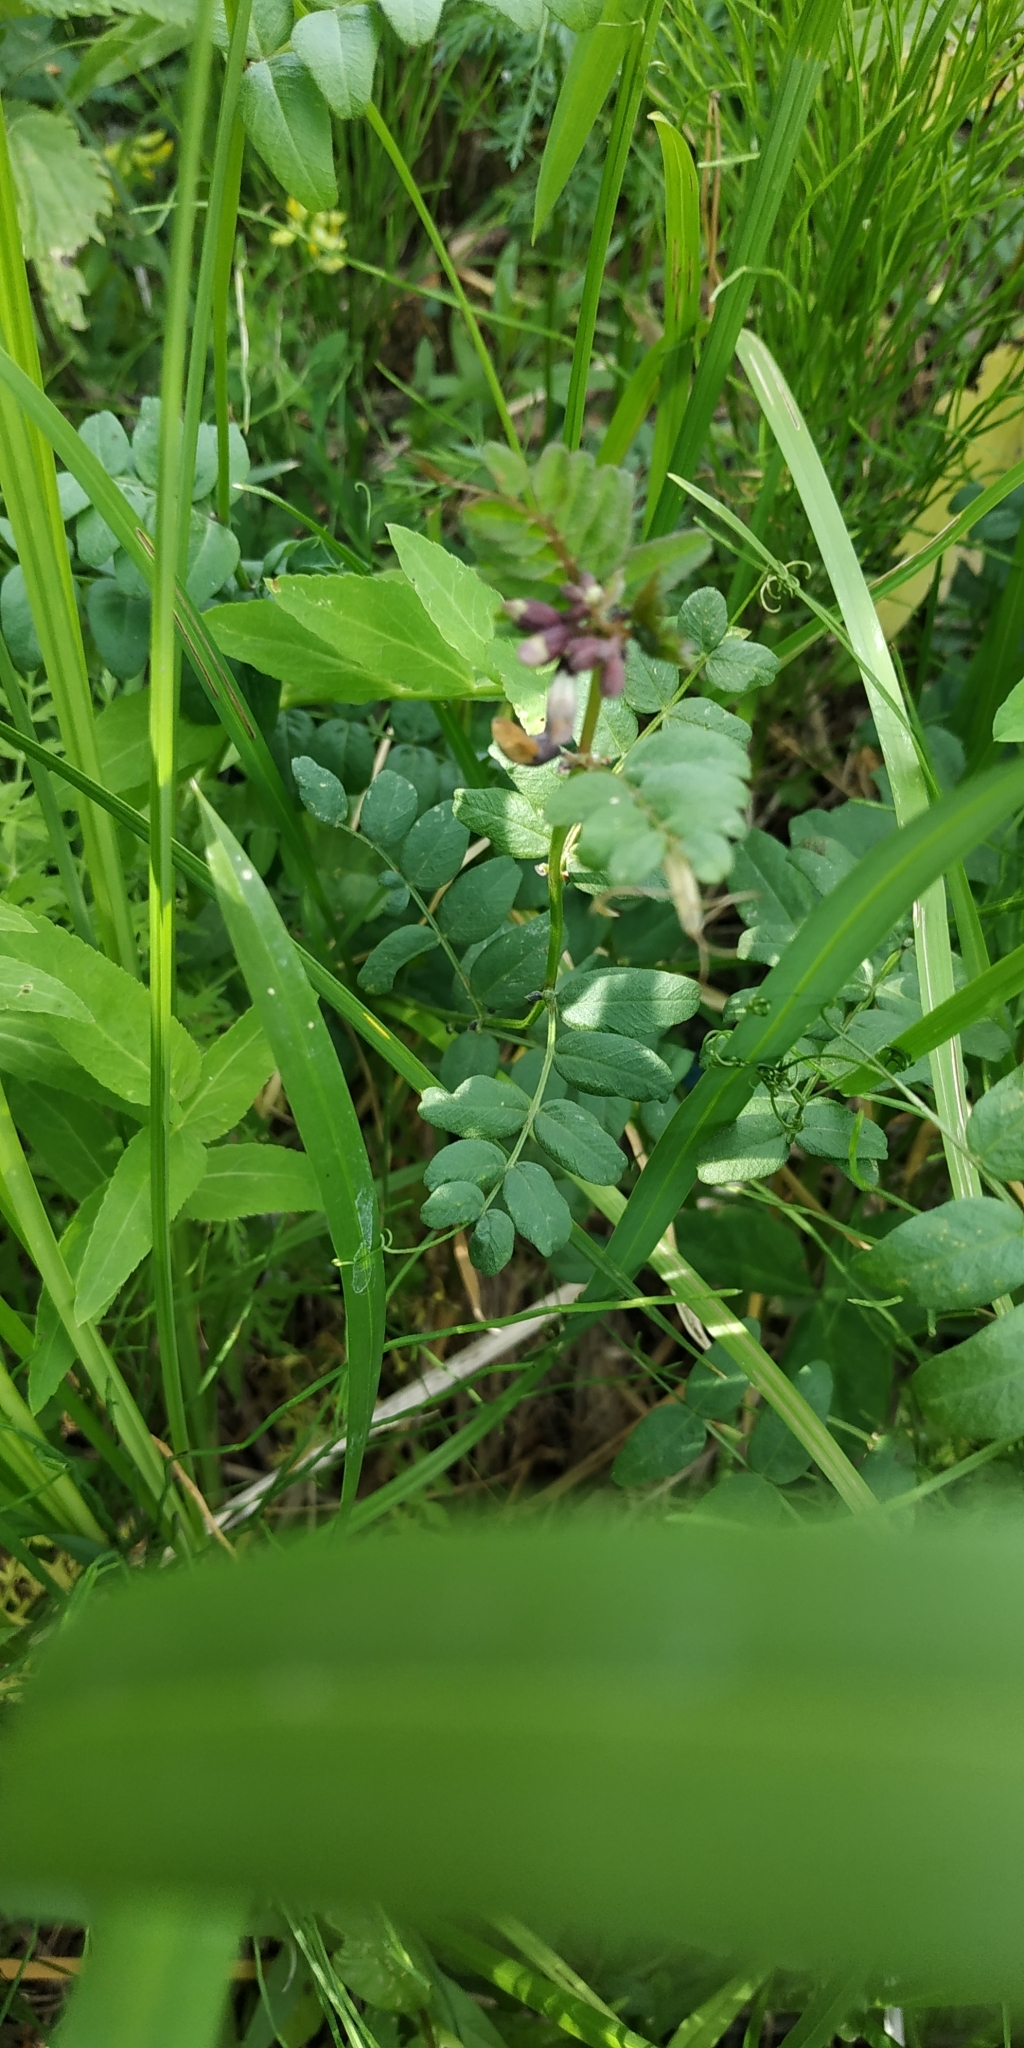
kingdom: Plantae
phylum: Tracheophyta
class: Magnoliopsida
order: Fabales
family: Fabaceae
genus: Vicia
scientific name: Vicia sepium
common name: Bush vetch
